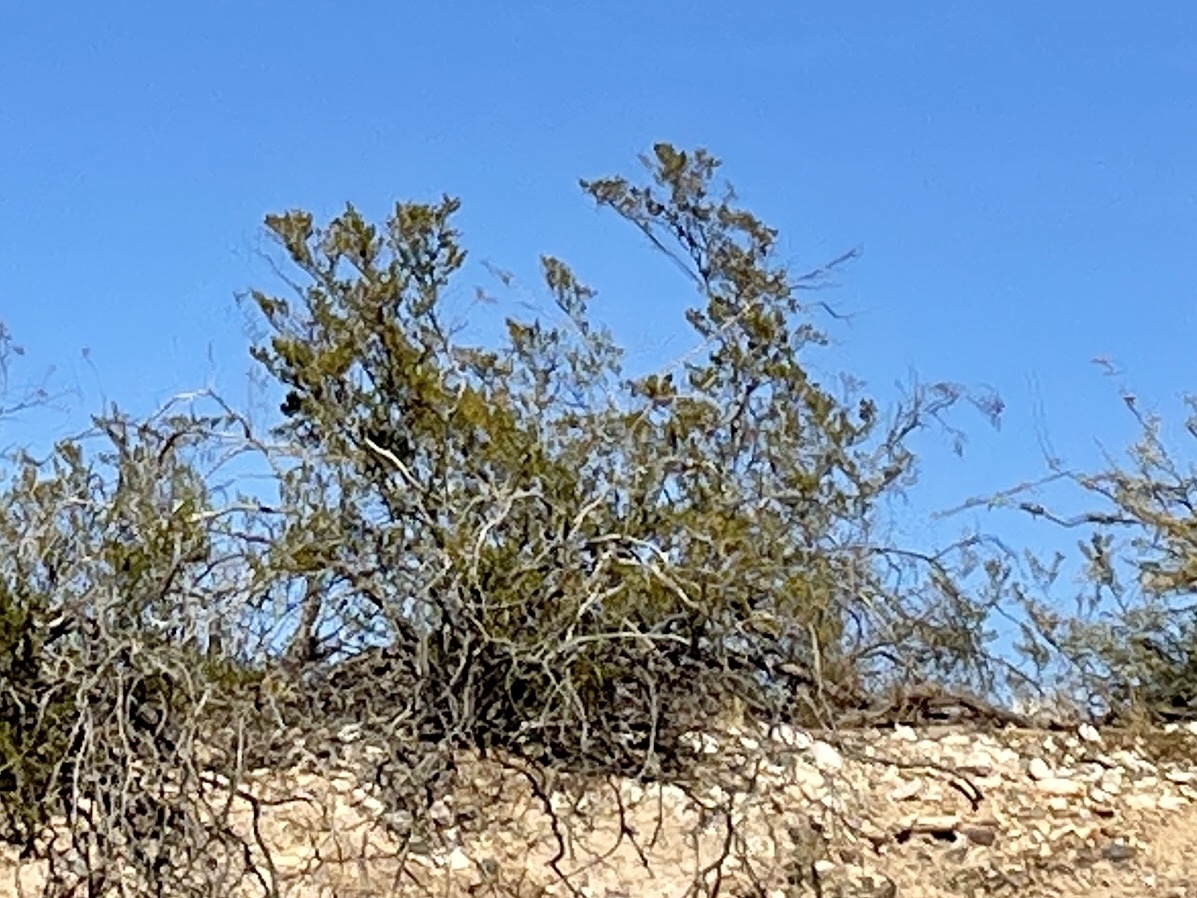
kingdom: Plantae
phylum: Tracheophyta
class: Magnoliopsida
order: Zygophyllales
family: Zygophyllaceae
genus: Larrea
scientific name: Larrea tridentata
